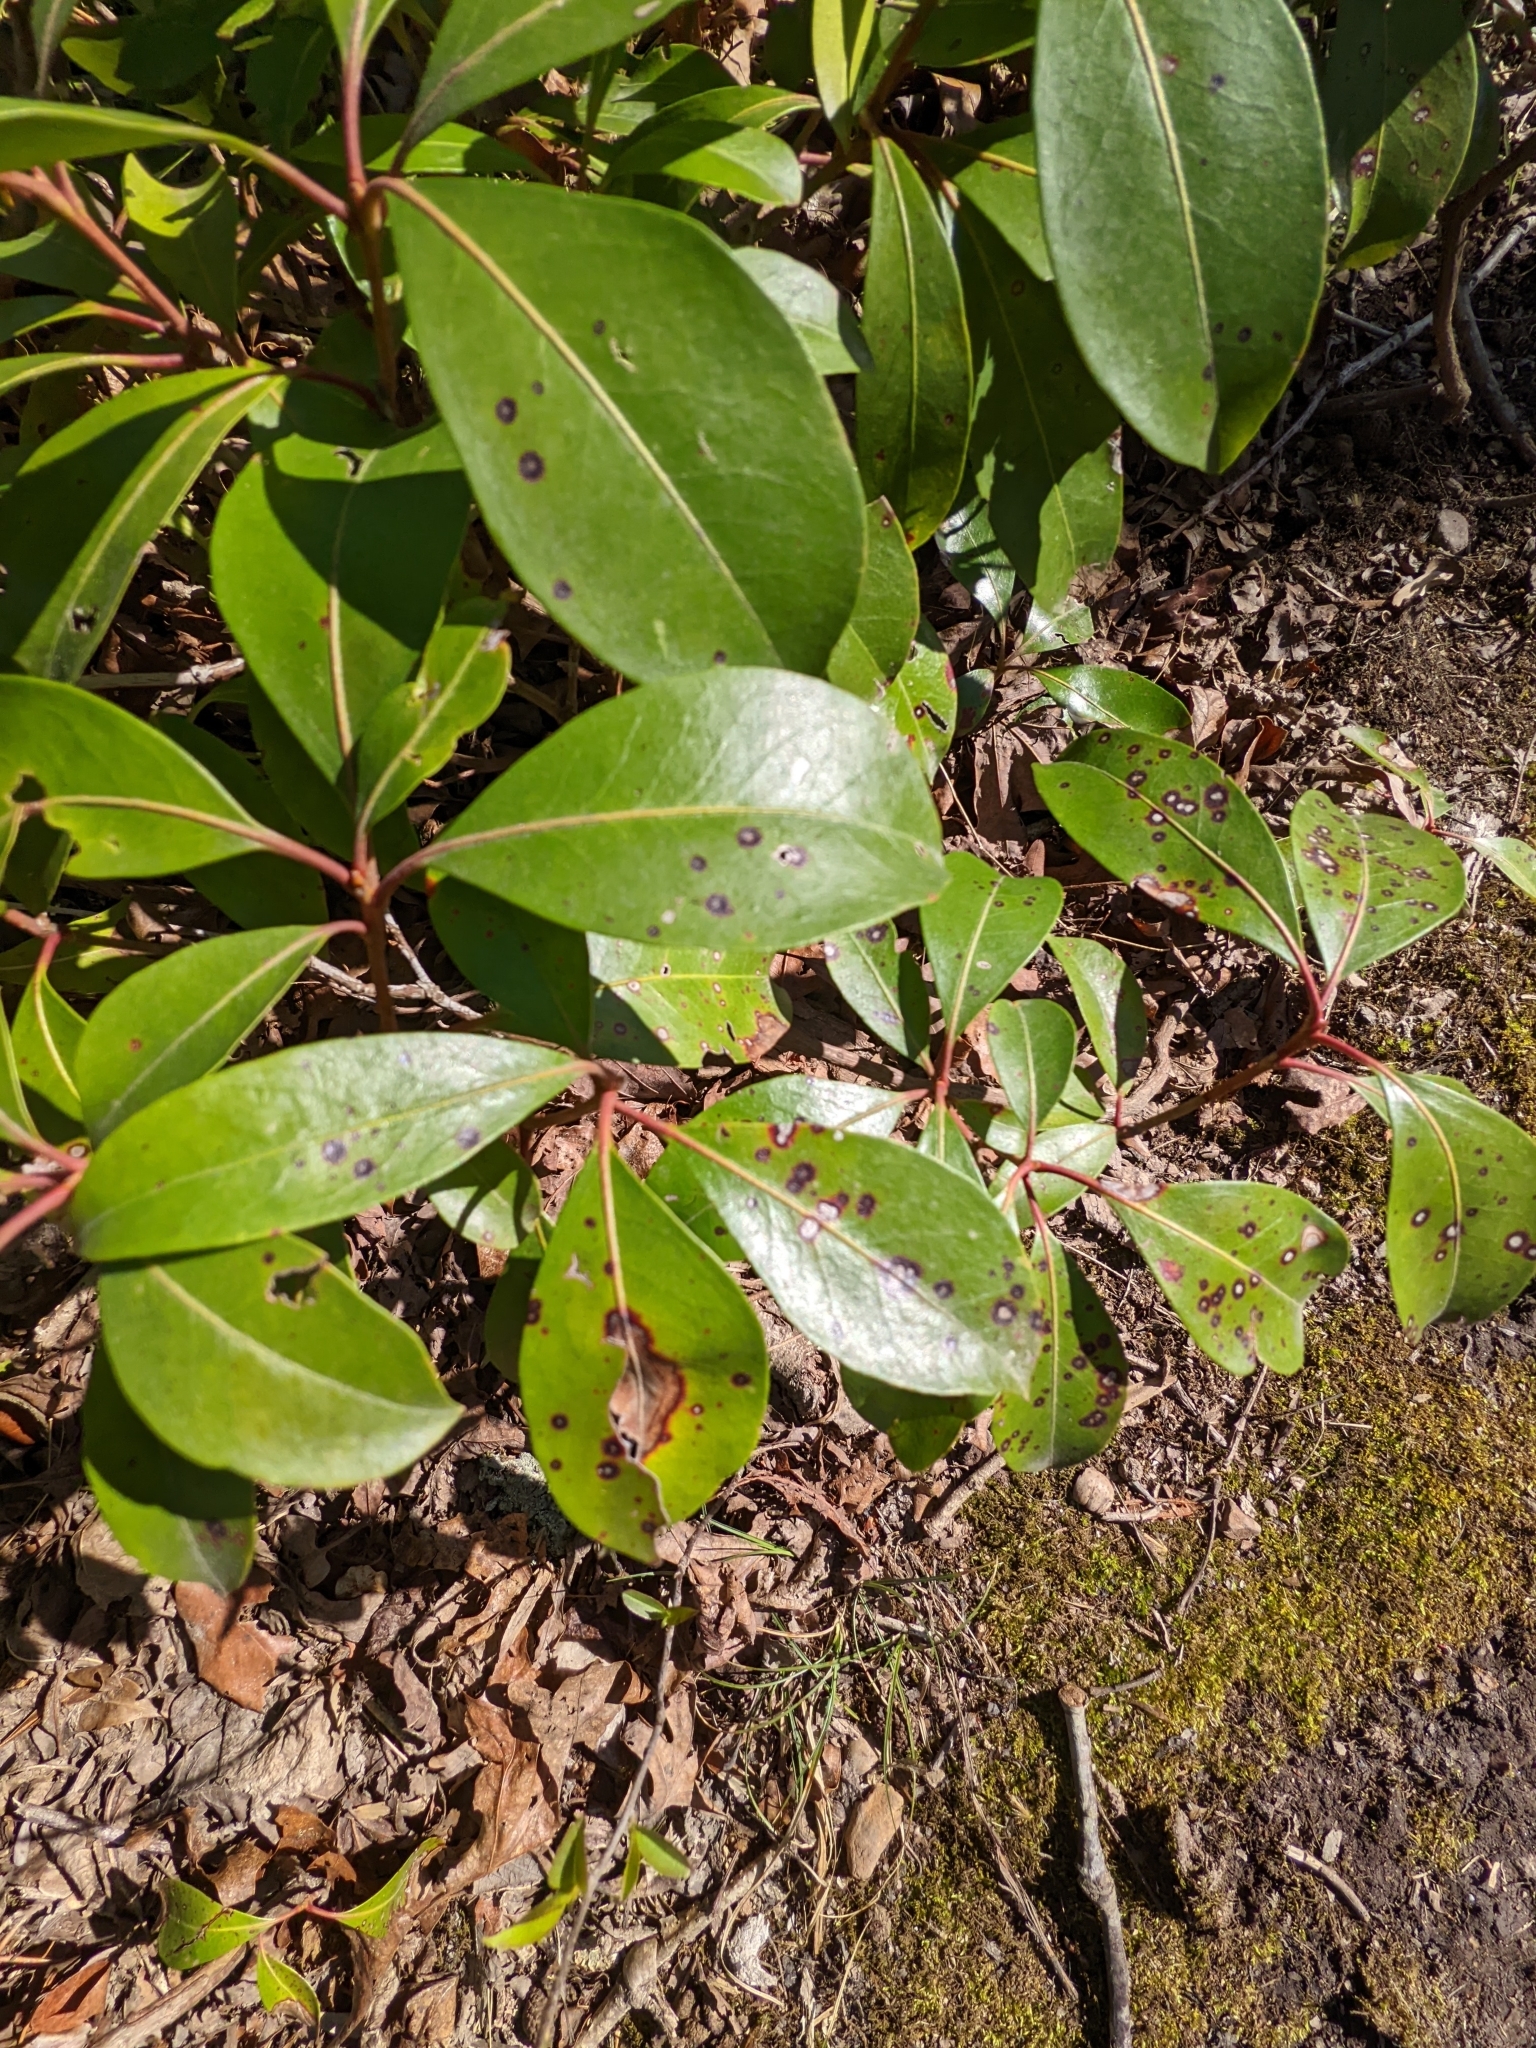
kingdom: Fungi
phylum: Ascomycota
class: Dothideomycetes
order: Mycosphaerellales
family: Mycosphaerellaceae
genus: Mycosphaerella
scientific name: Mycosphaerella colorata
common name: Mountain laurel leaf spot
